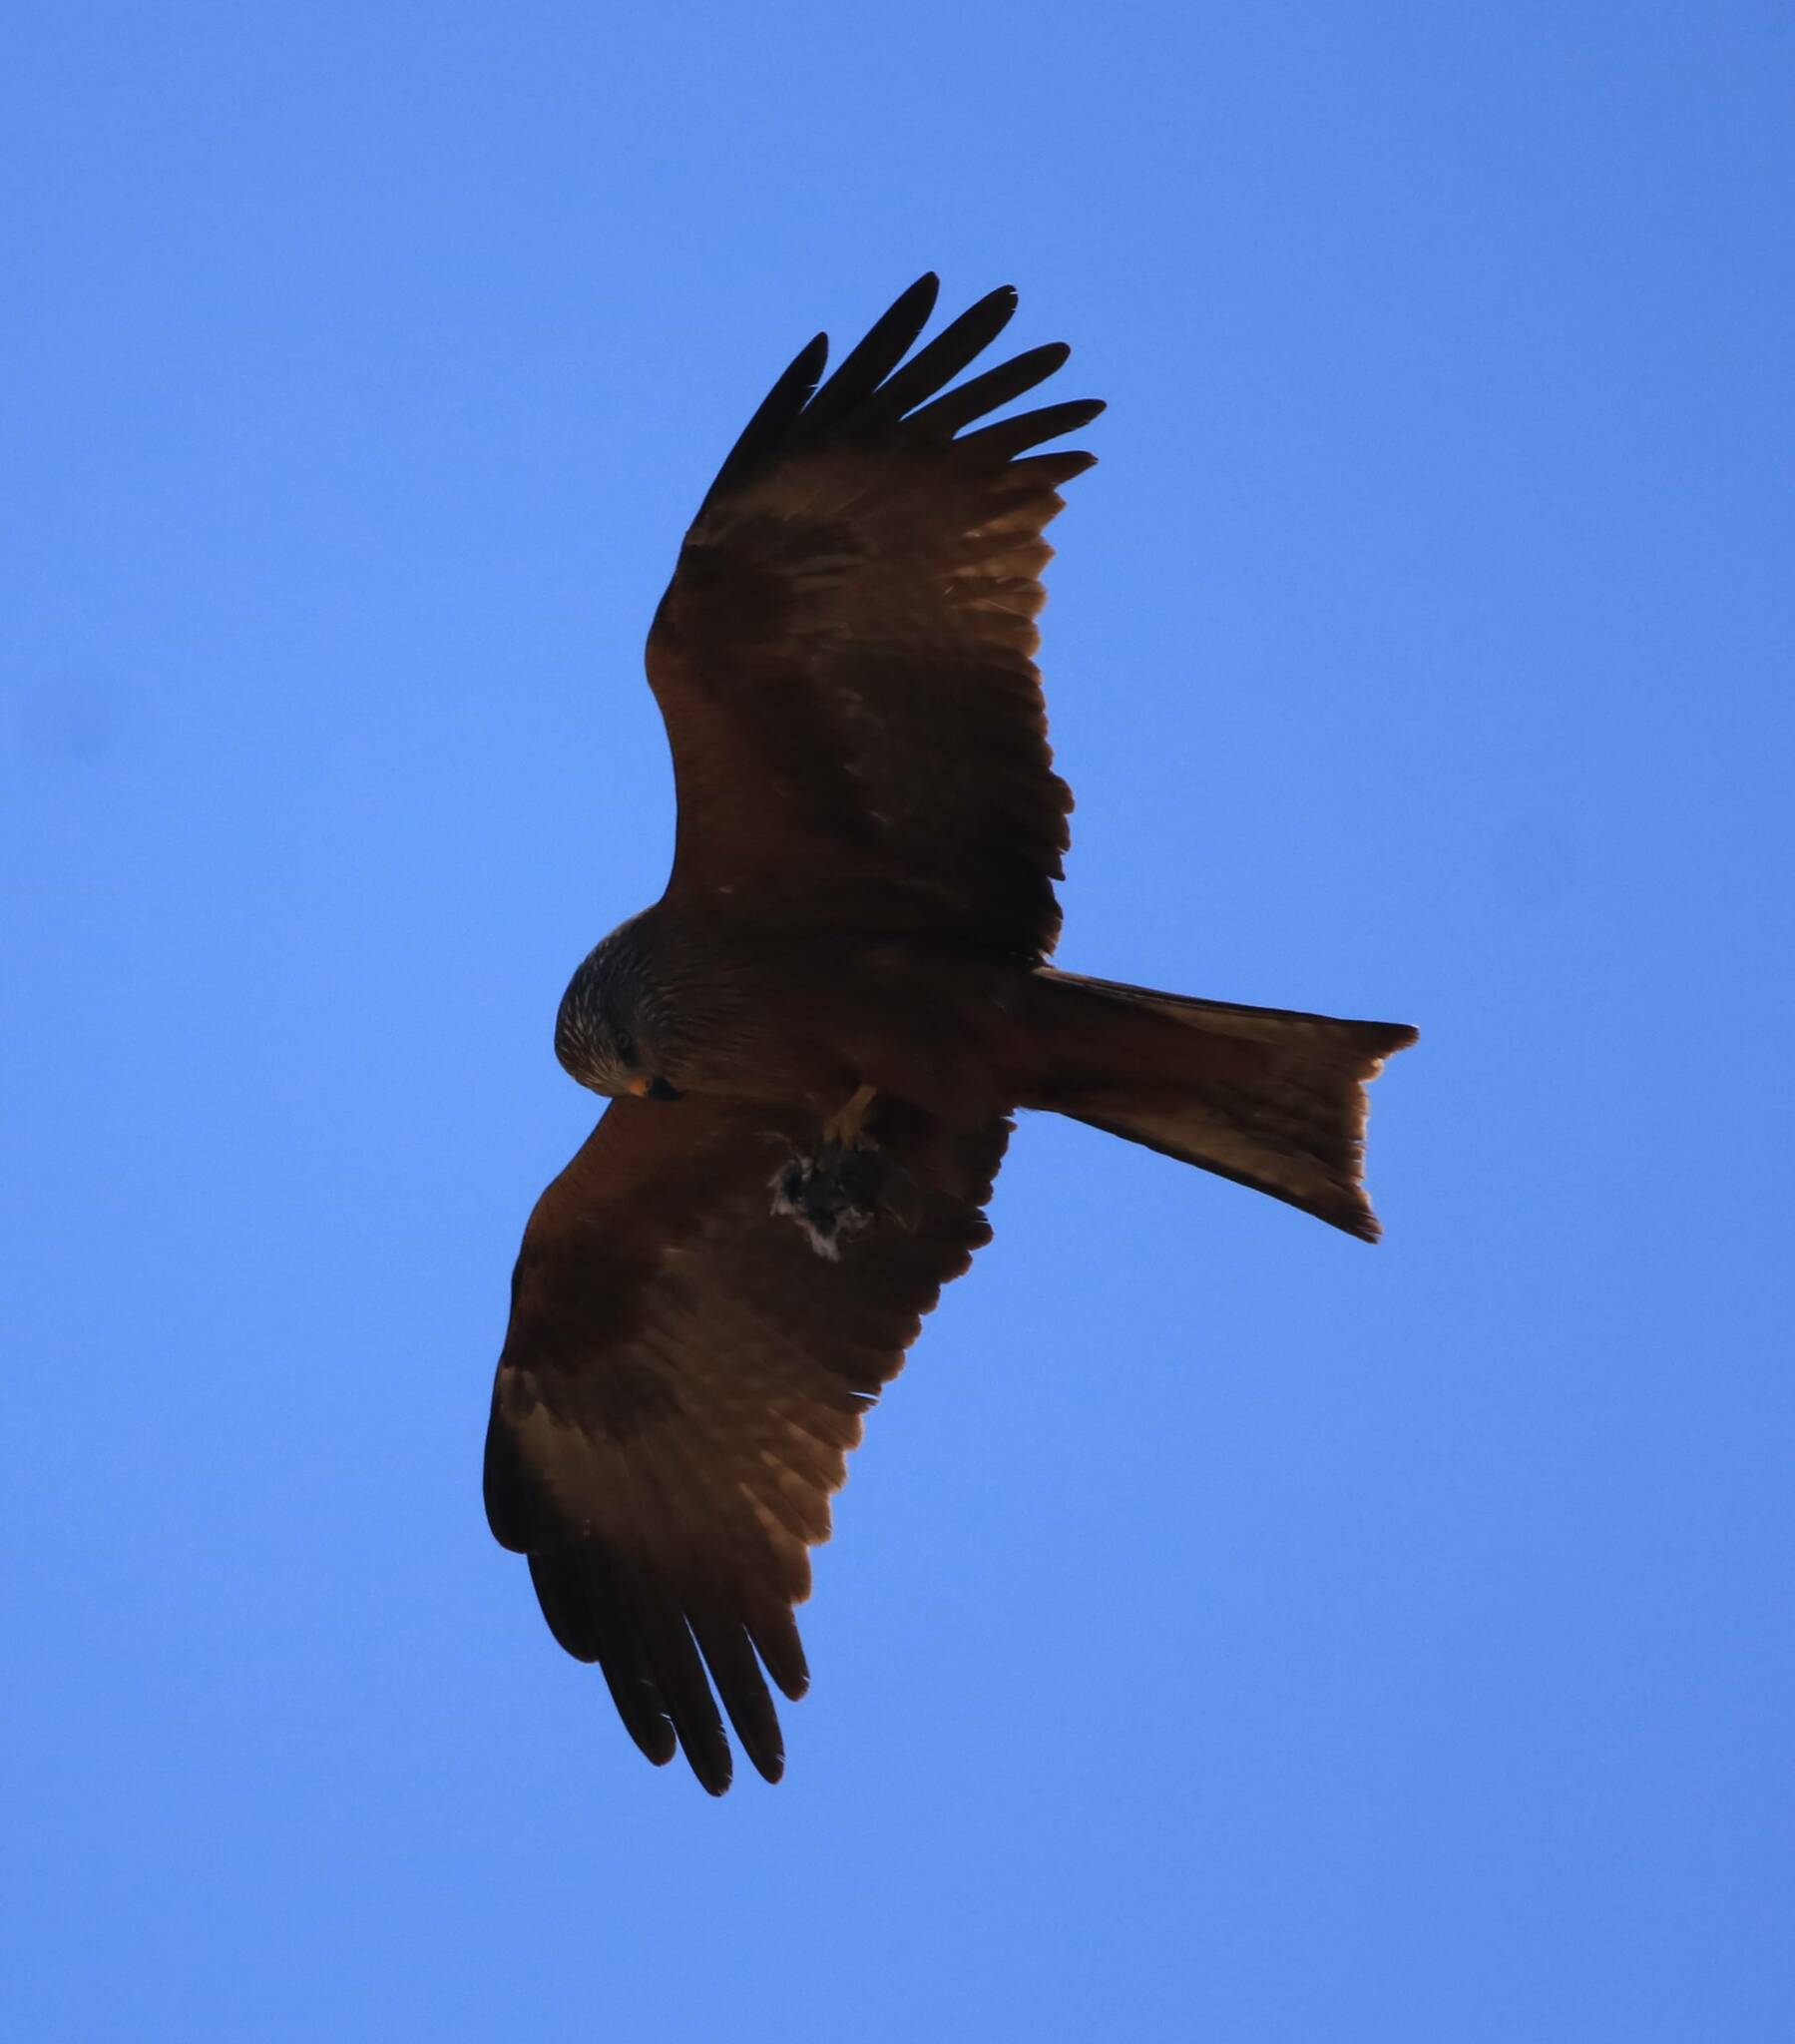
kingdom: Animalia
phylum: Chordata
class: Aves
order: Accipitriformes
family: Accipitridae
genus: Milvus
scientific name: Milvus migrans
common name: Black kite
